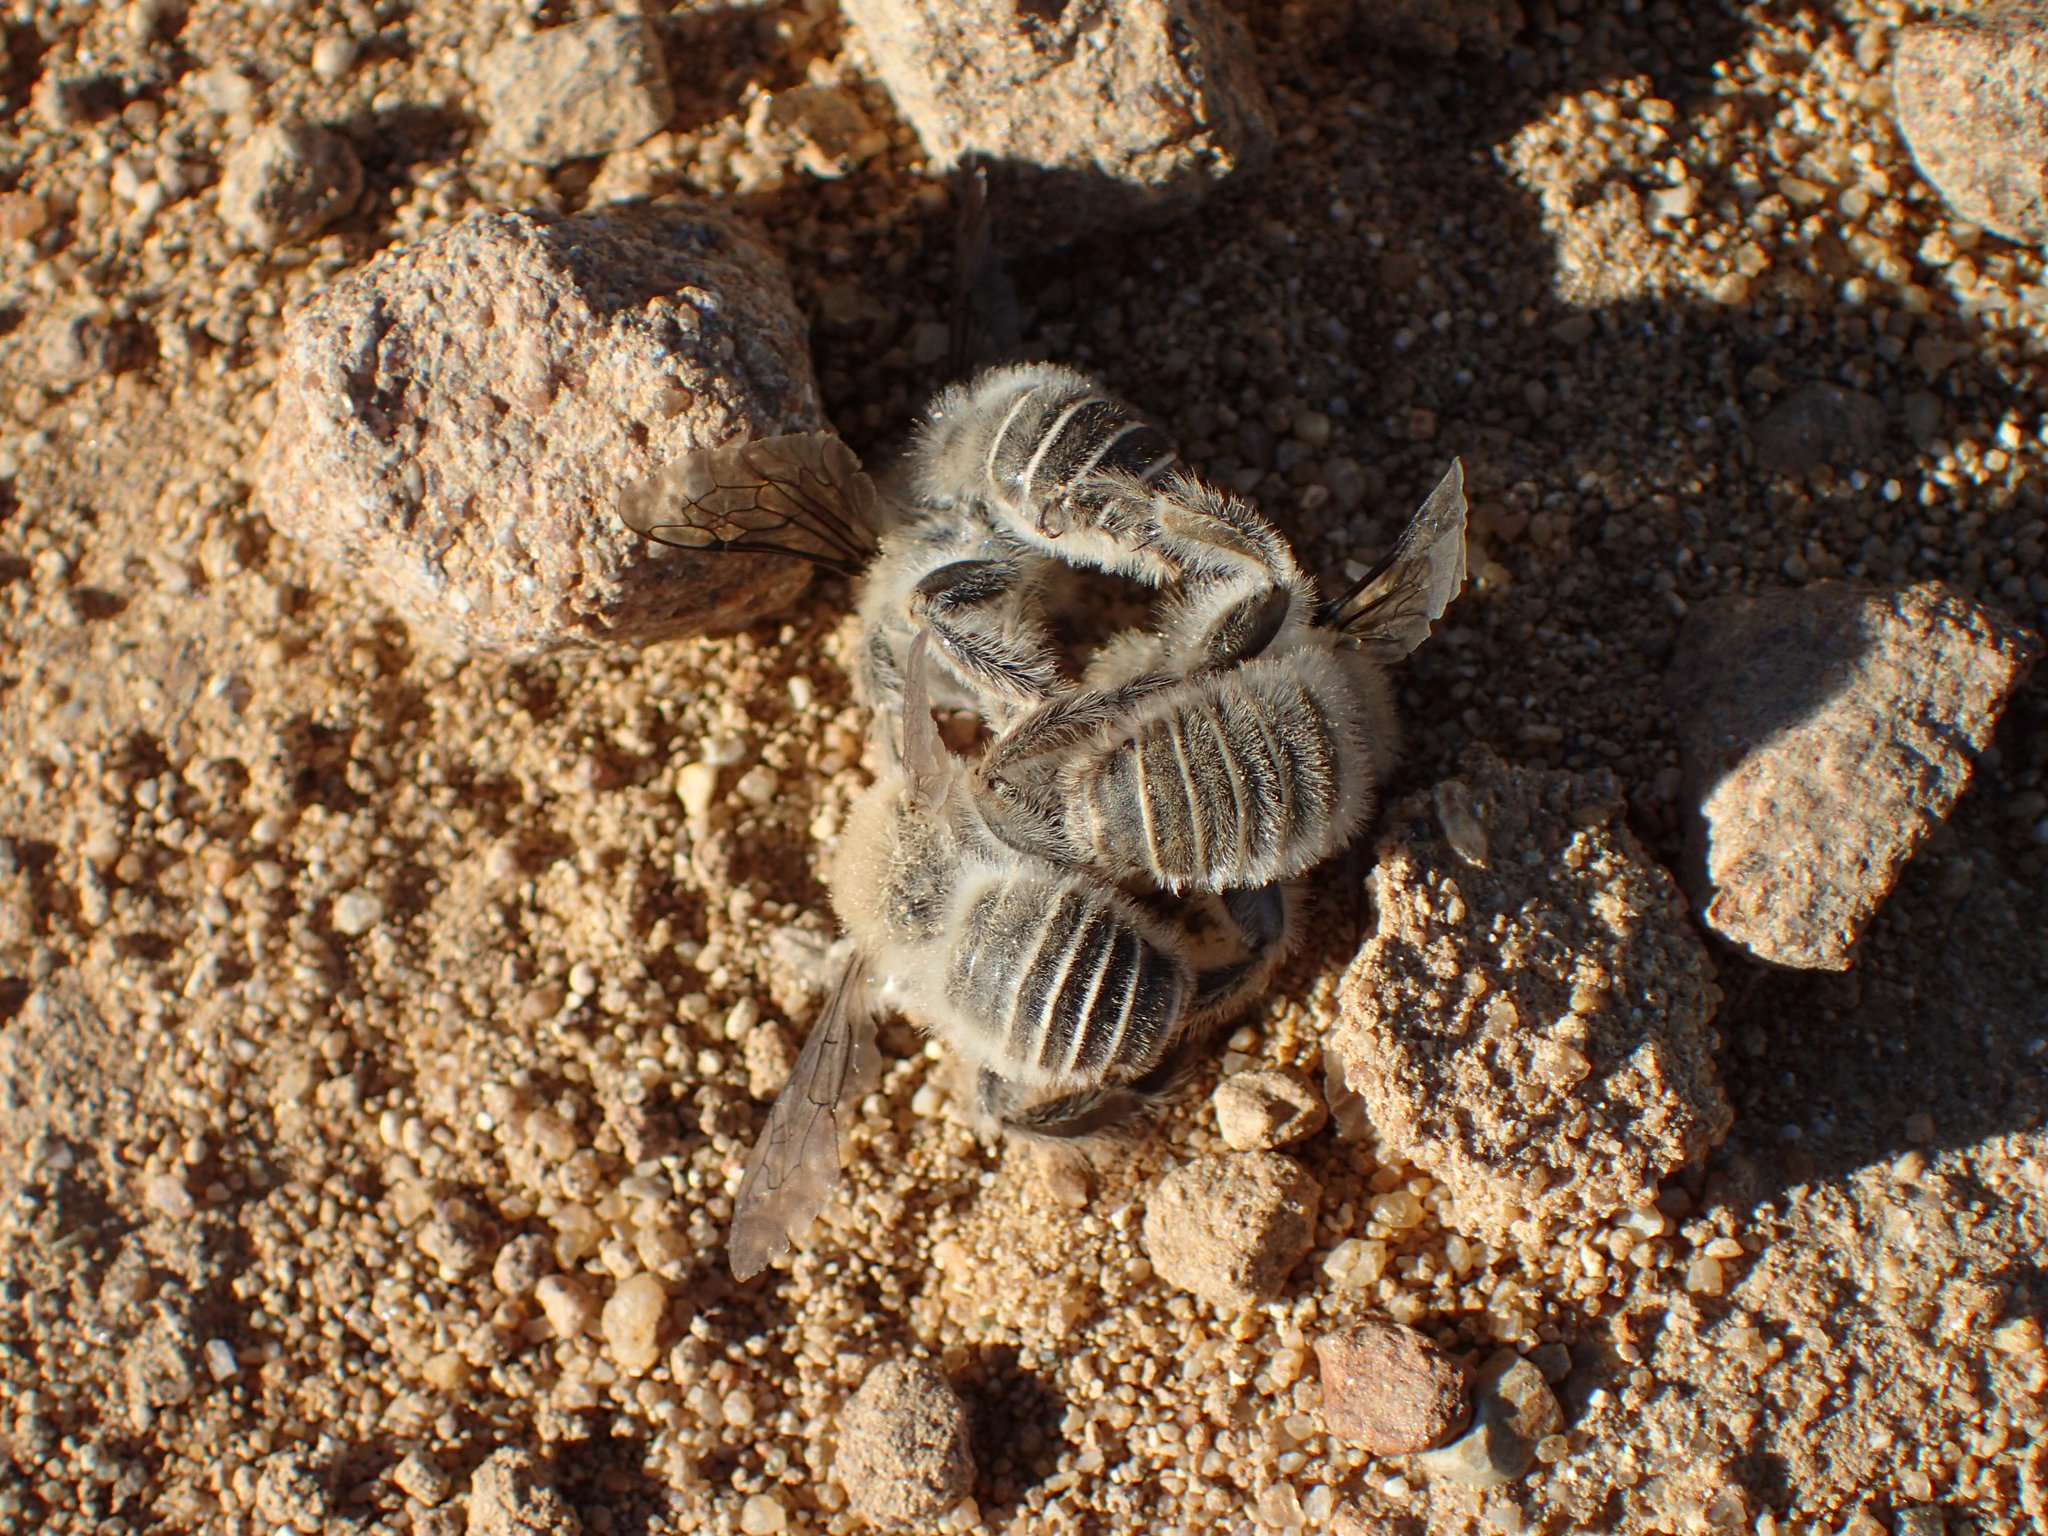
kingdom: Animalia
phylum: Arthropoda
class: Insecta
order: Hymenoptera
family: Apidae
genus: Diadasia
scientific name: Diadasia bituberculata
